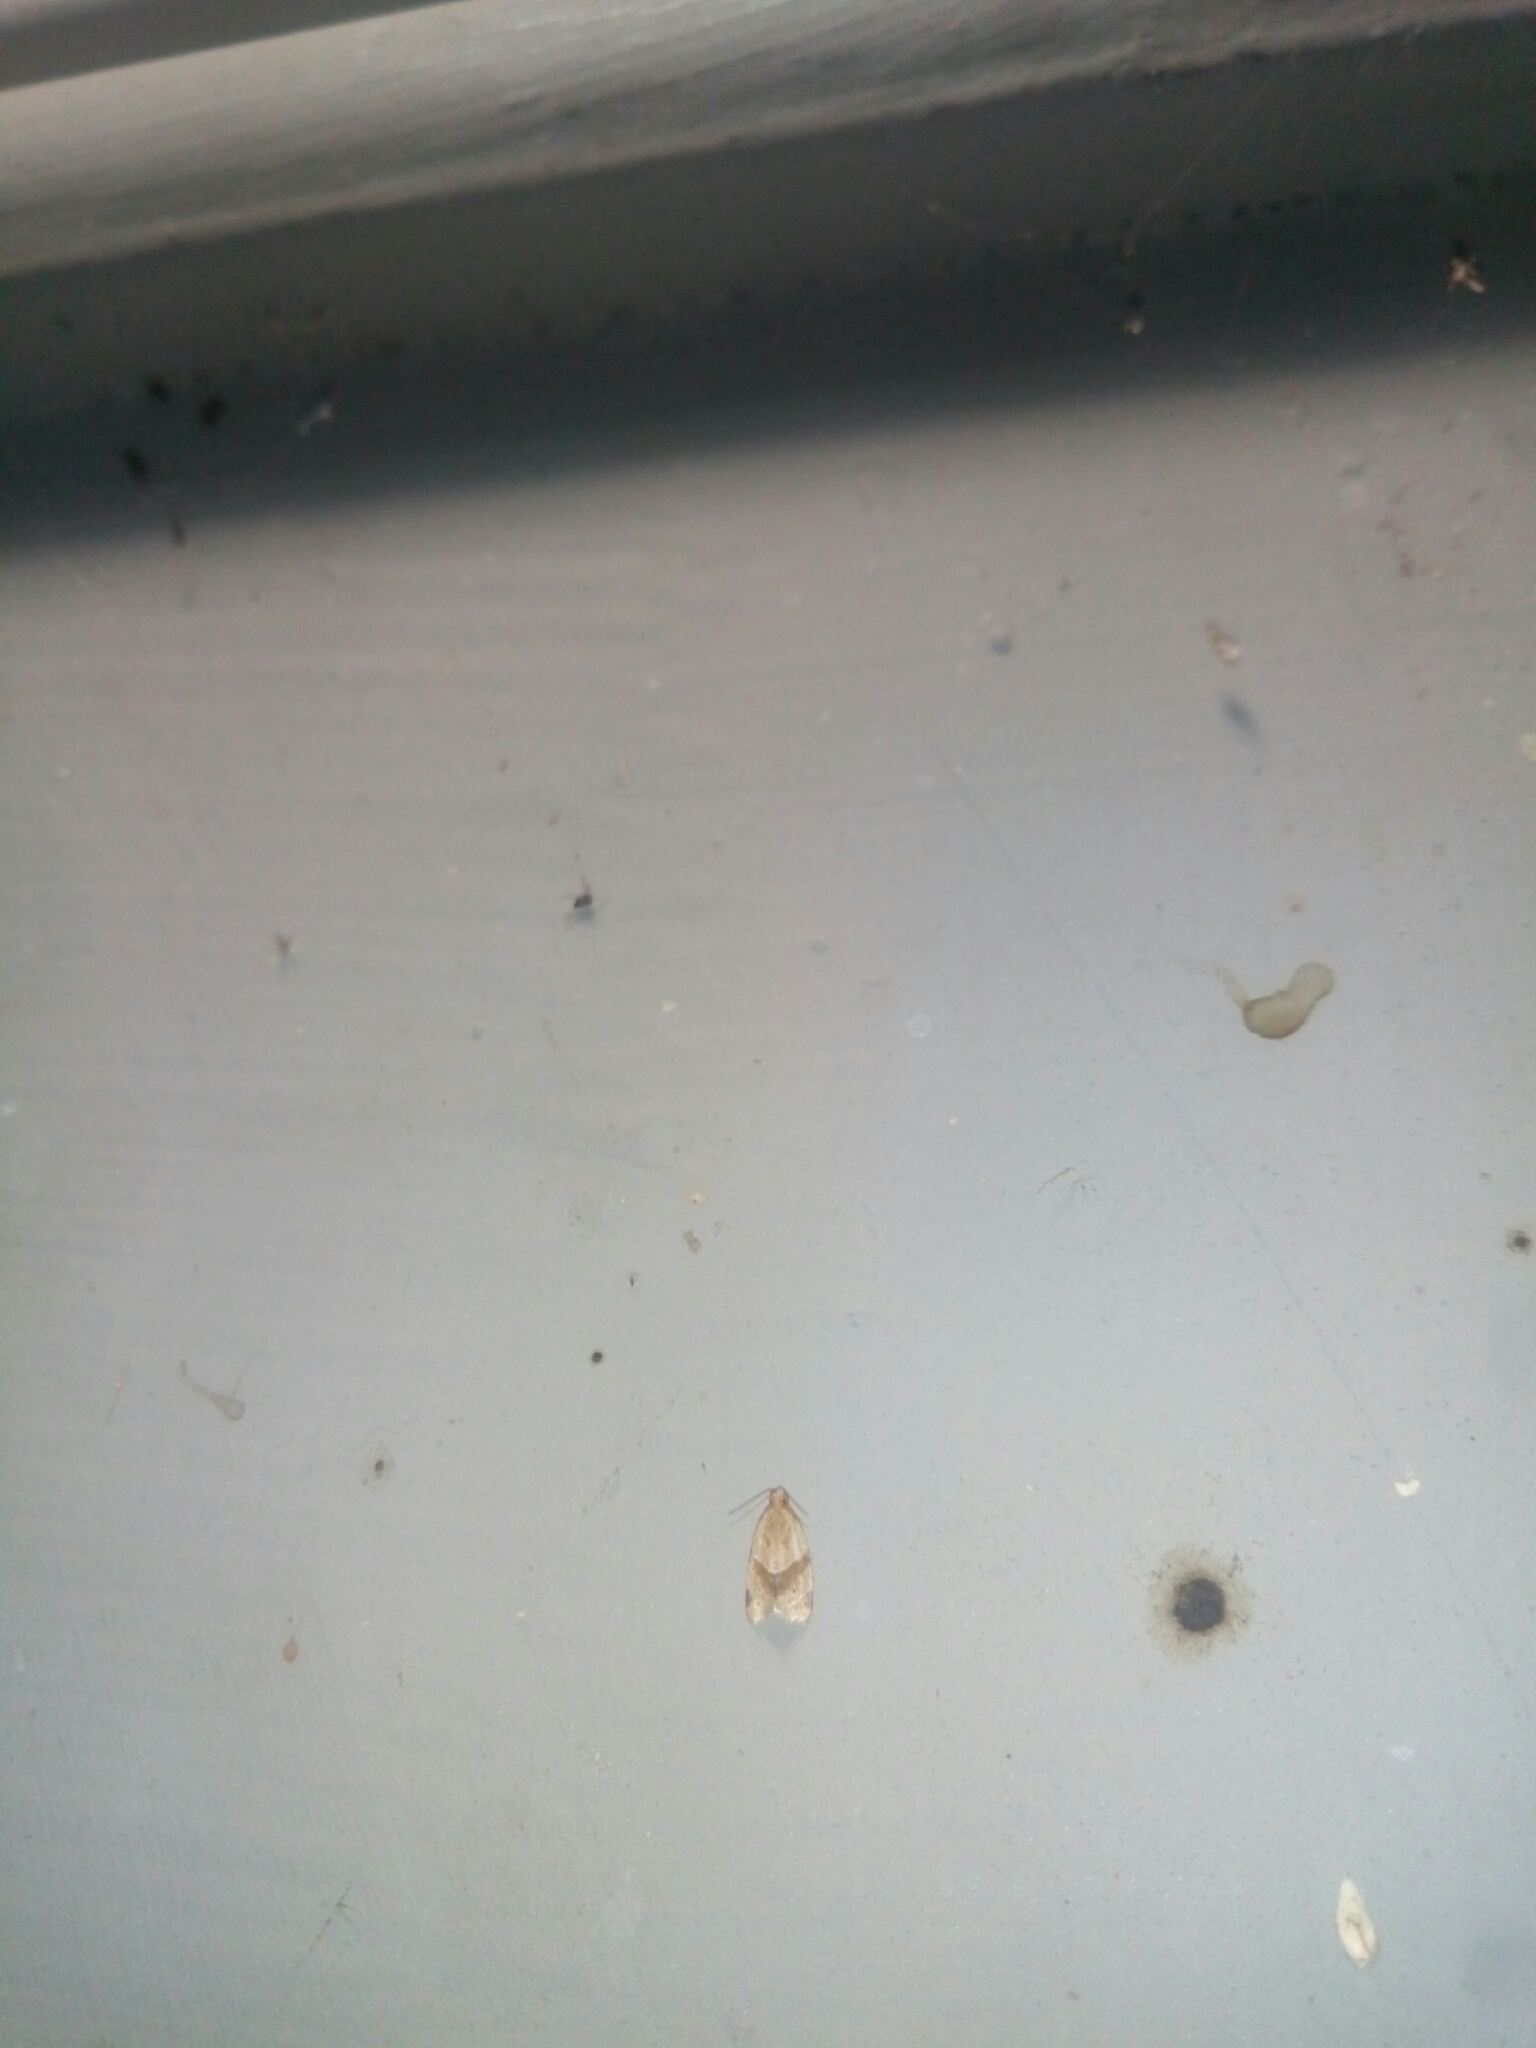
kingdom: Animalia
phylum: Arthropoda
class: Insecta
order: Lepidoptera
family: Tortricidae
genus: Clepsis
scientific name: Clepsis peritana
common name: Garden tortrix
